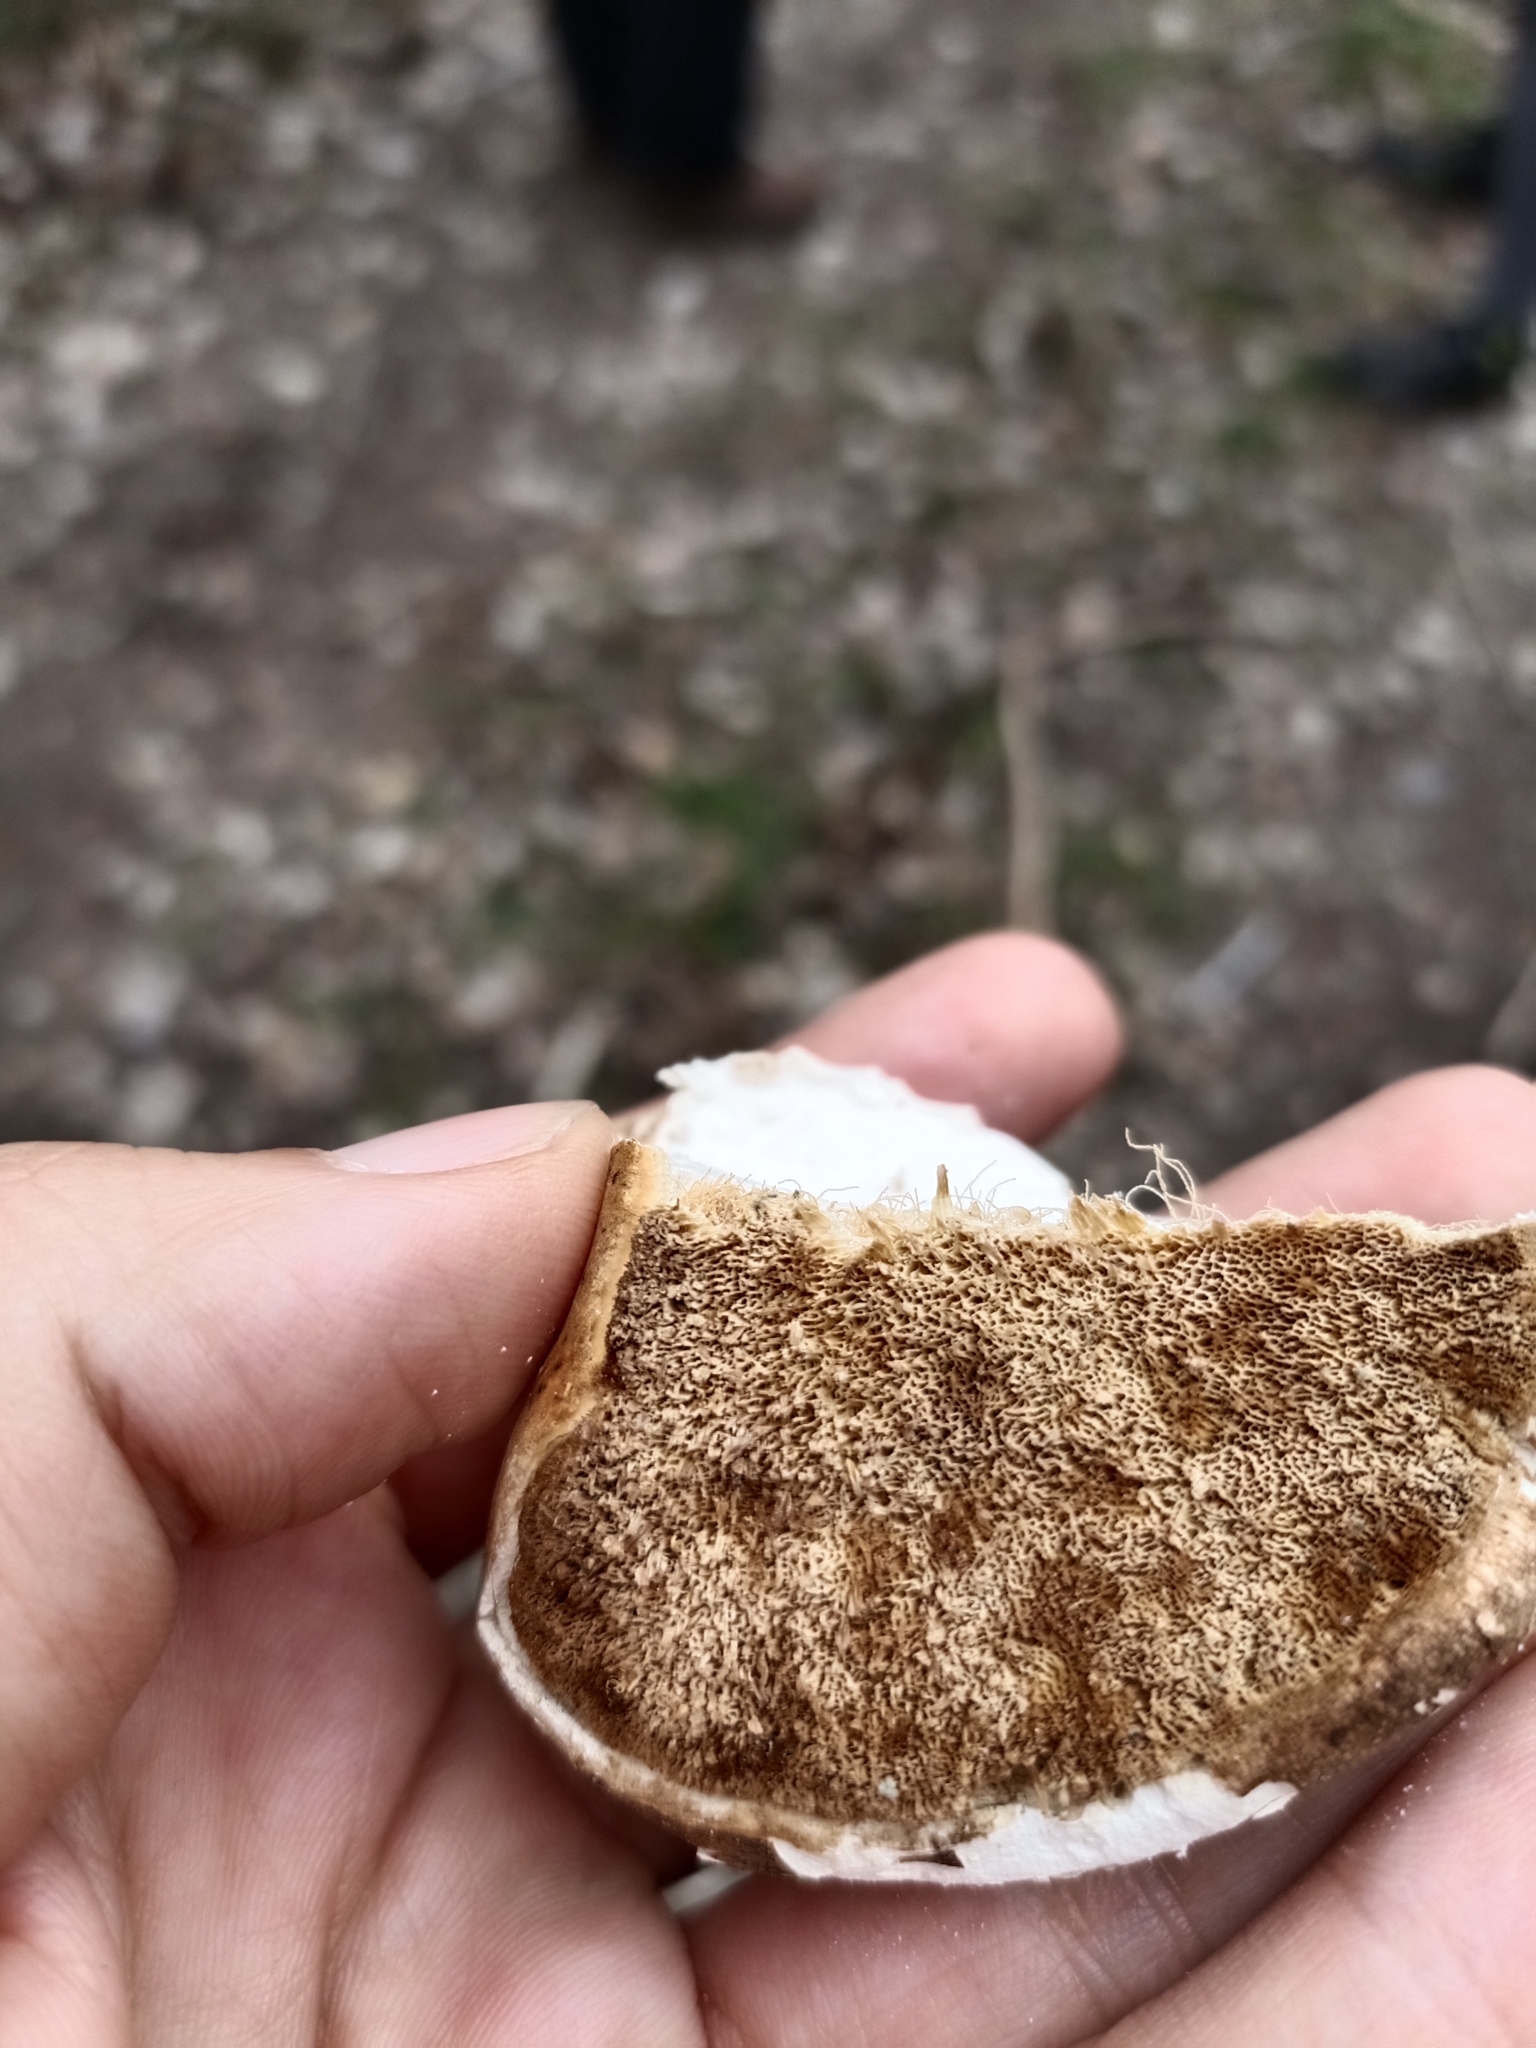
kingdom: Fungi
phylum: Basidiomycota
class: Agaricomycetes
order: Polyporales
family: Fomitopsidaceae
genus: Fomitopsis
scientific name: Fomitopsis betulina
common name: Birch polypore
